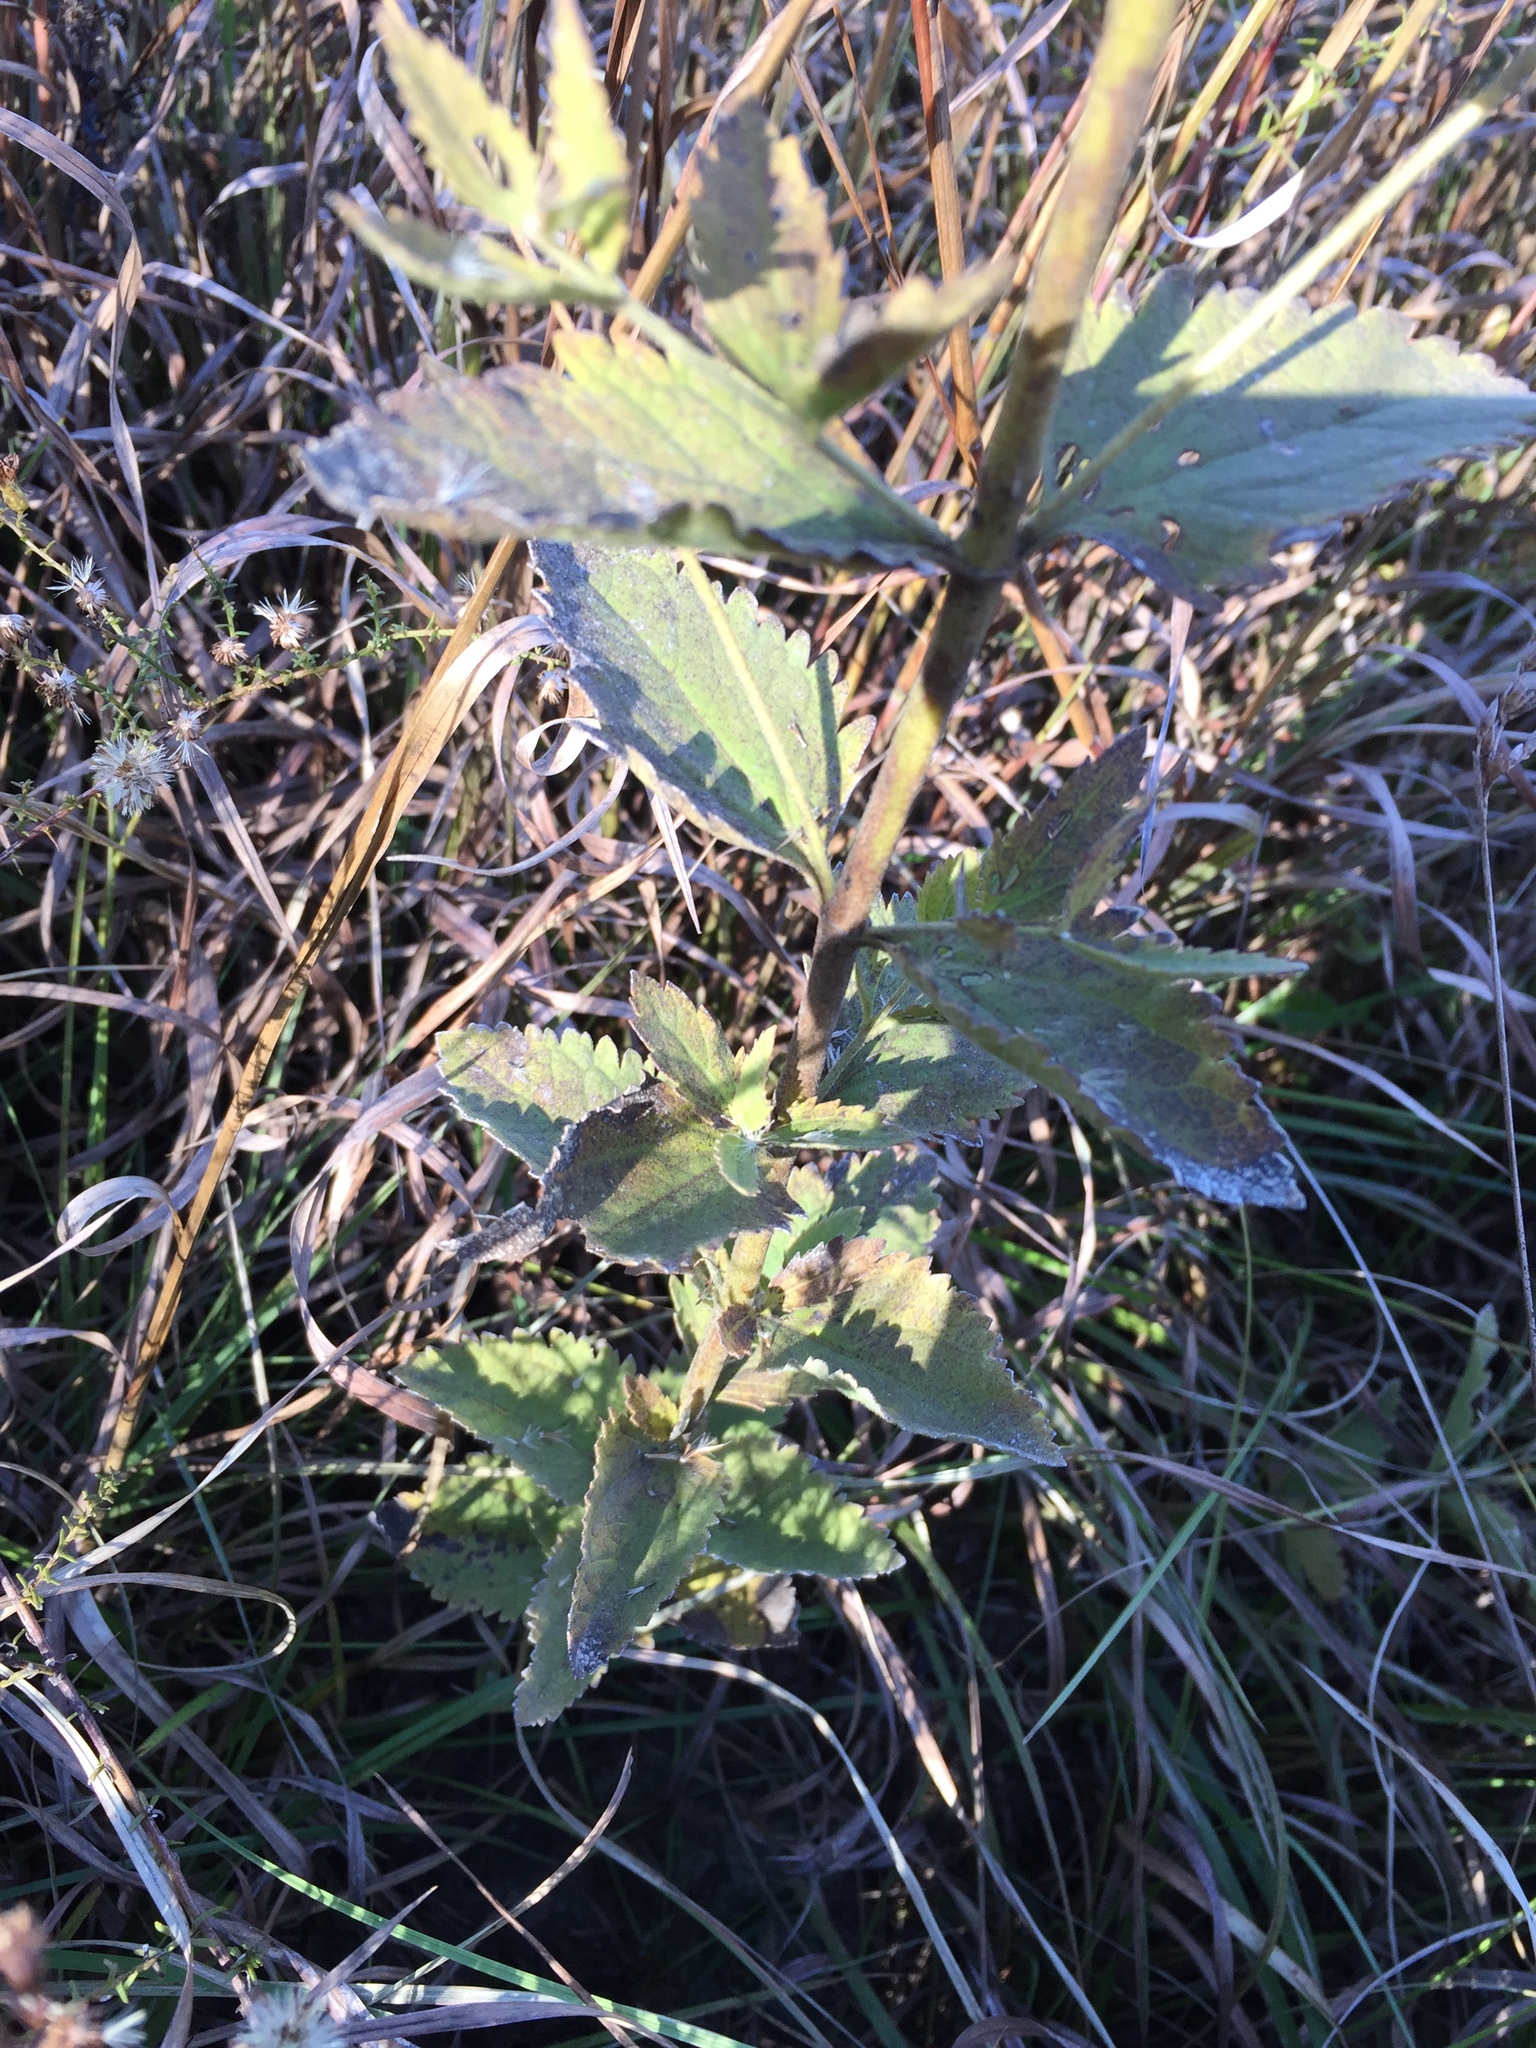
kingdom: Plantae
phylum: Tracheophyta
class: Magnoliopsida
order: Asterales
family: Asteraceae
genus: Eupatorium
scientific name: Eupatorium rotundifolium
